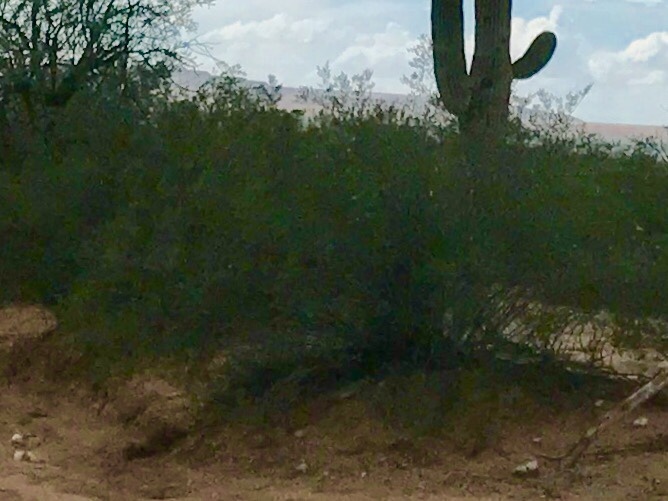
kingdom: Plantae
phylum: Tracheophyta
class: Magnoliopsida
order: Zygophyllales
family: Zygophyllaceae
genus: Larrea
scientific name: Larrea tridentata
